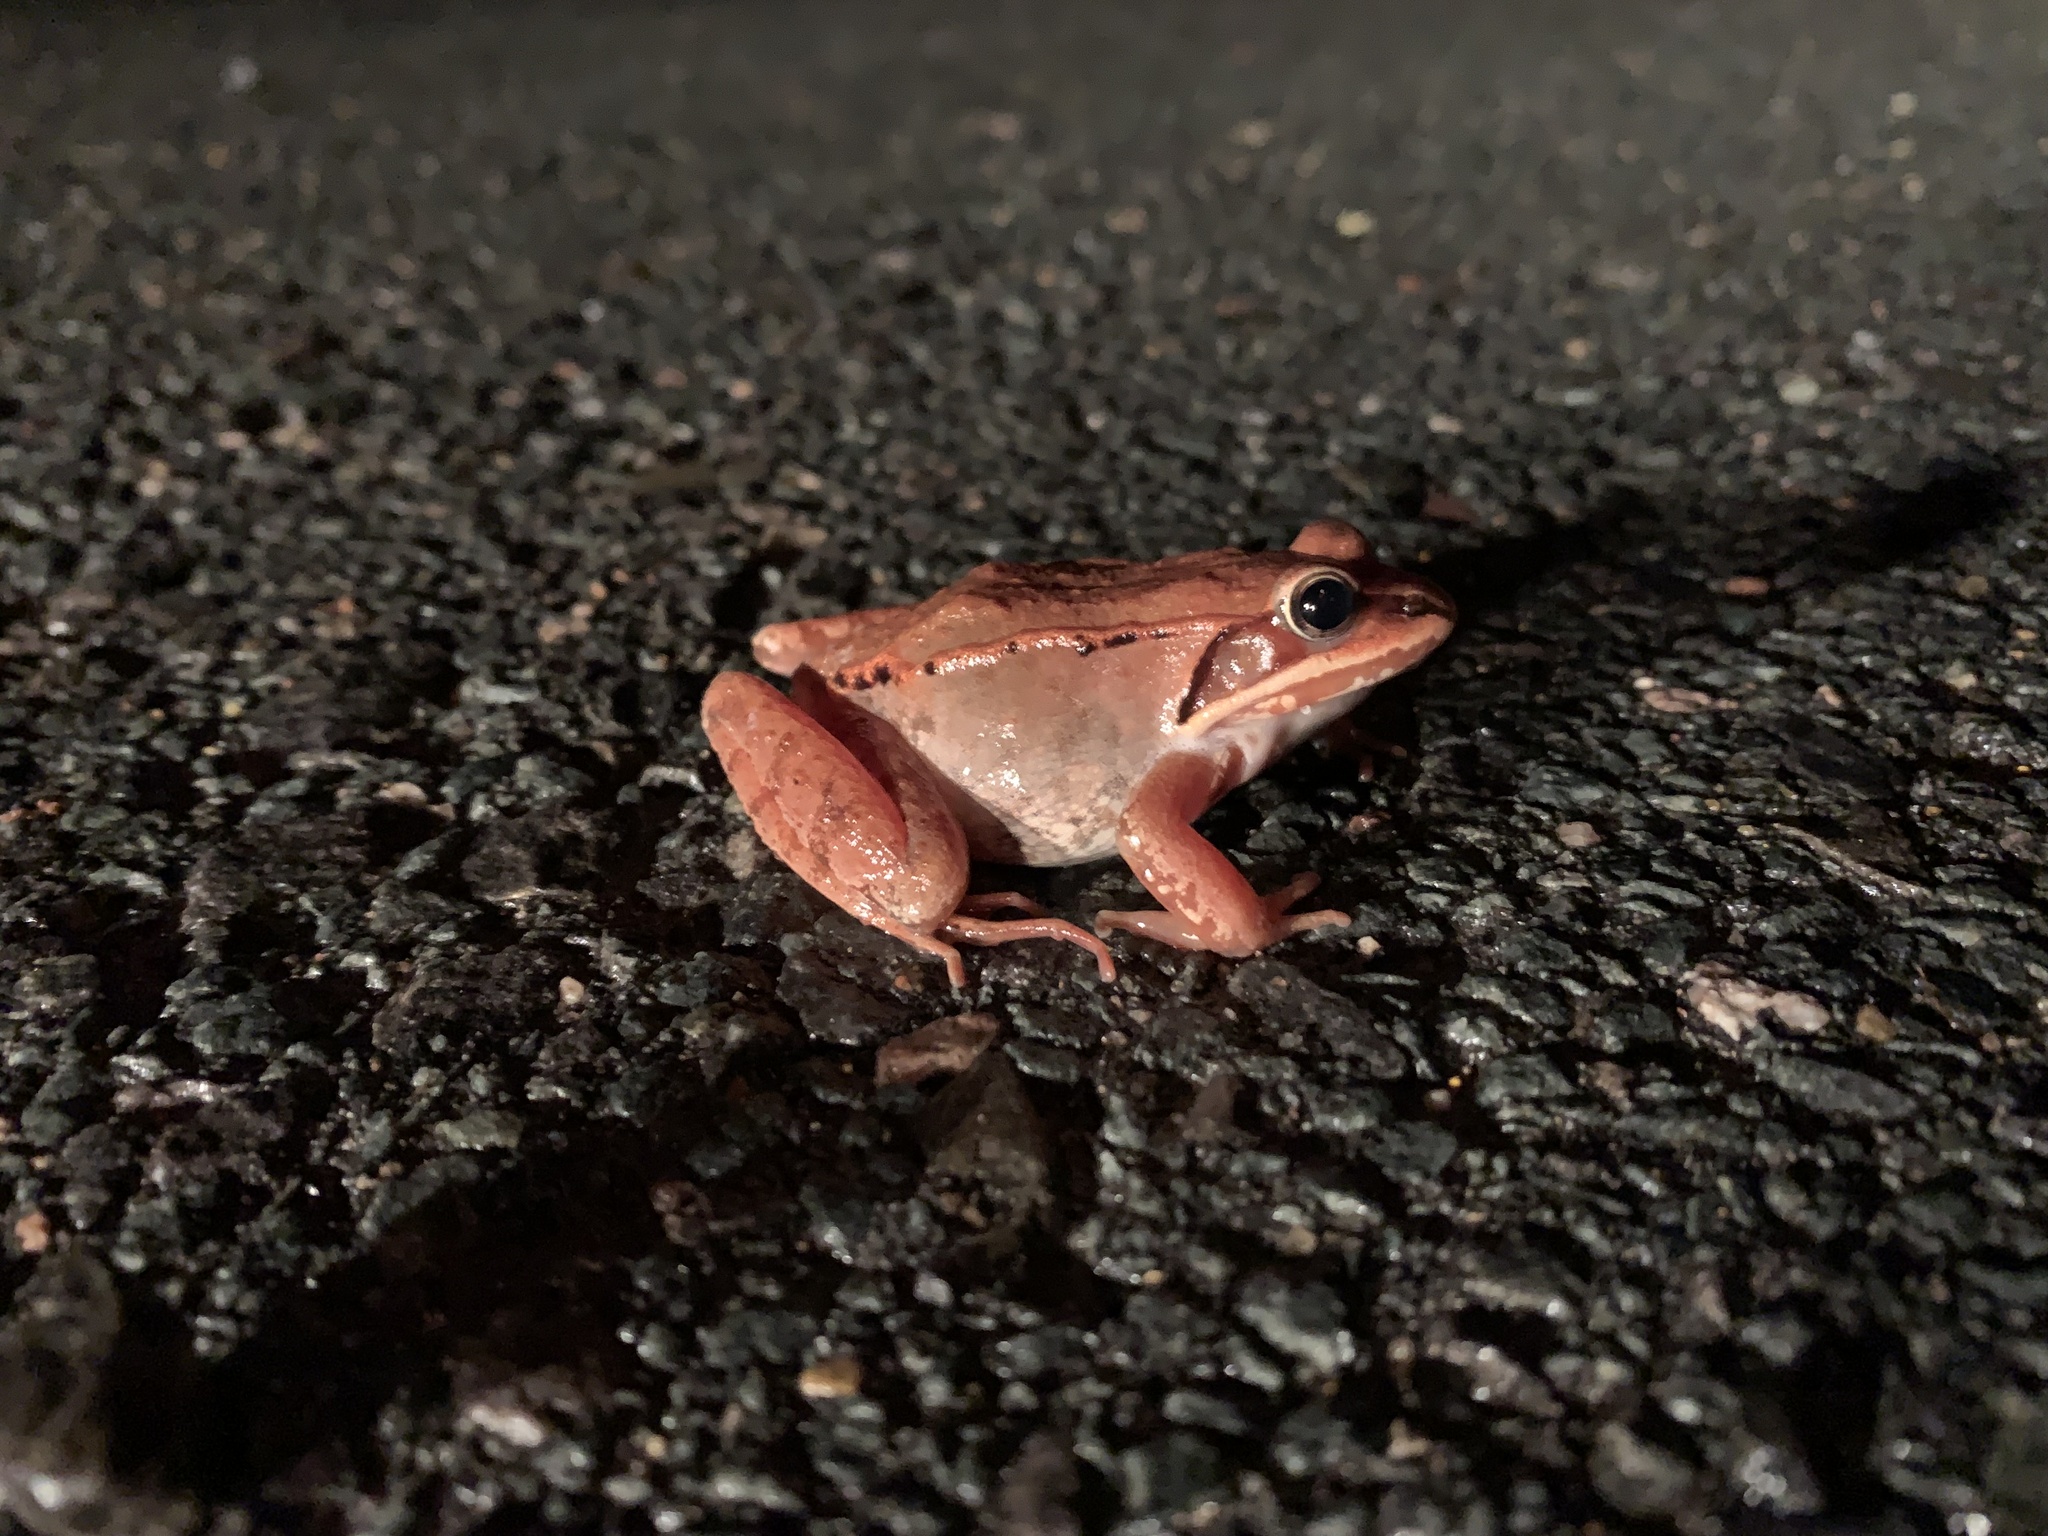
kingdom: Animalia
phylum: Chordata
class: Amphibia
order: Anura
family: Ranidae
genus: Lithobates
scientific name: Lithobates sylvaticus
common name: Wood frog
